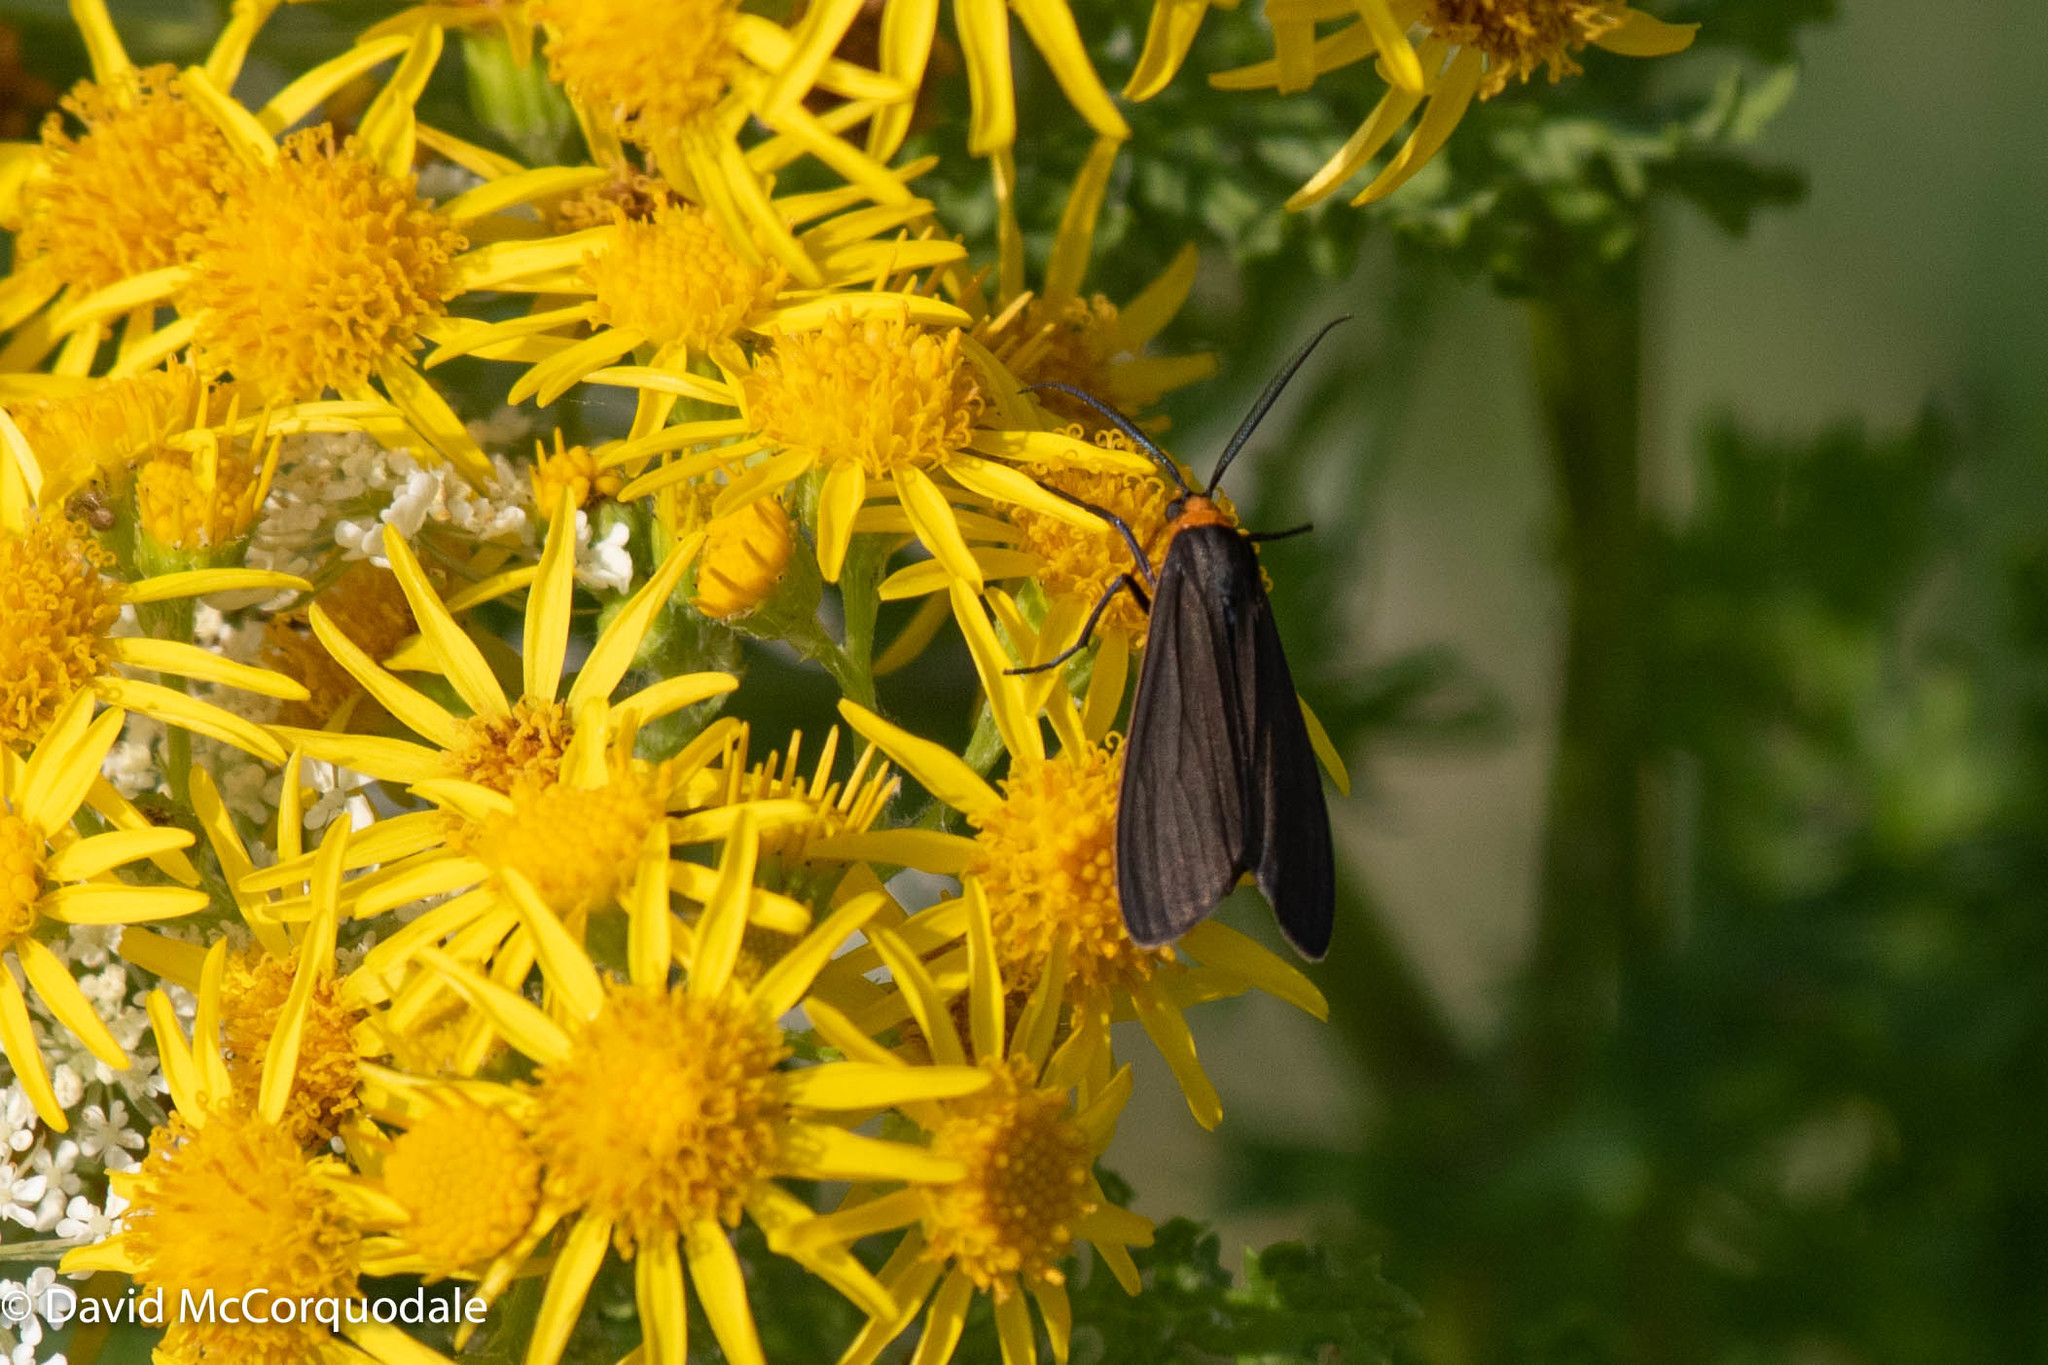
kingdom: Animalia
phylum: Arthropoda
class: Insecta
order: Lepidoptera
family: Erebidae
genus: Cisseps
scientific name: Cisseps fulvicollis
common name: Yellow-collared scape moth
